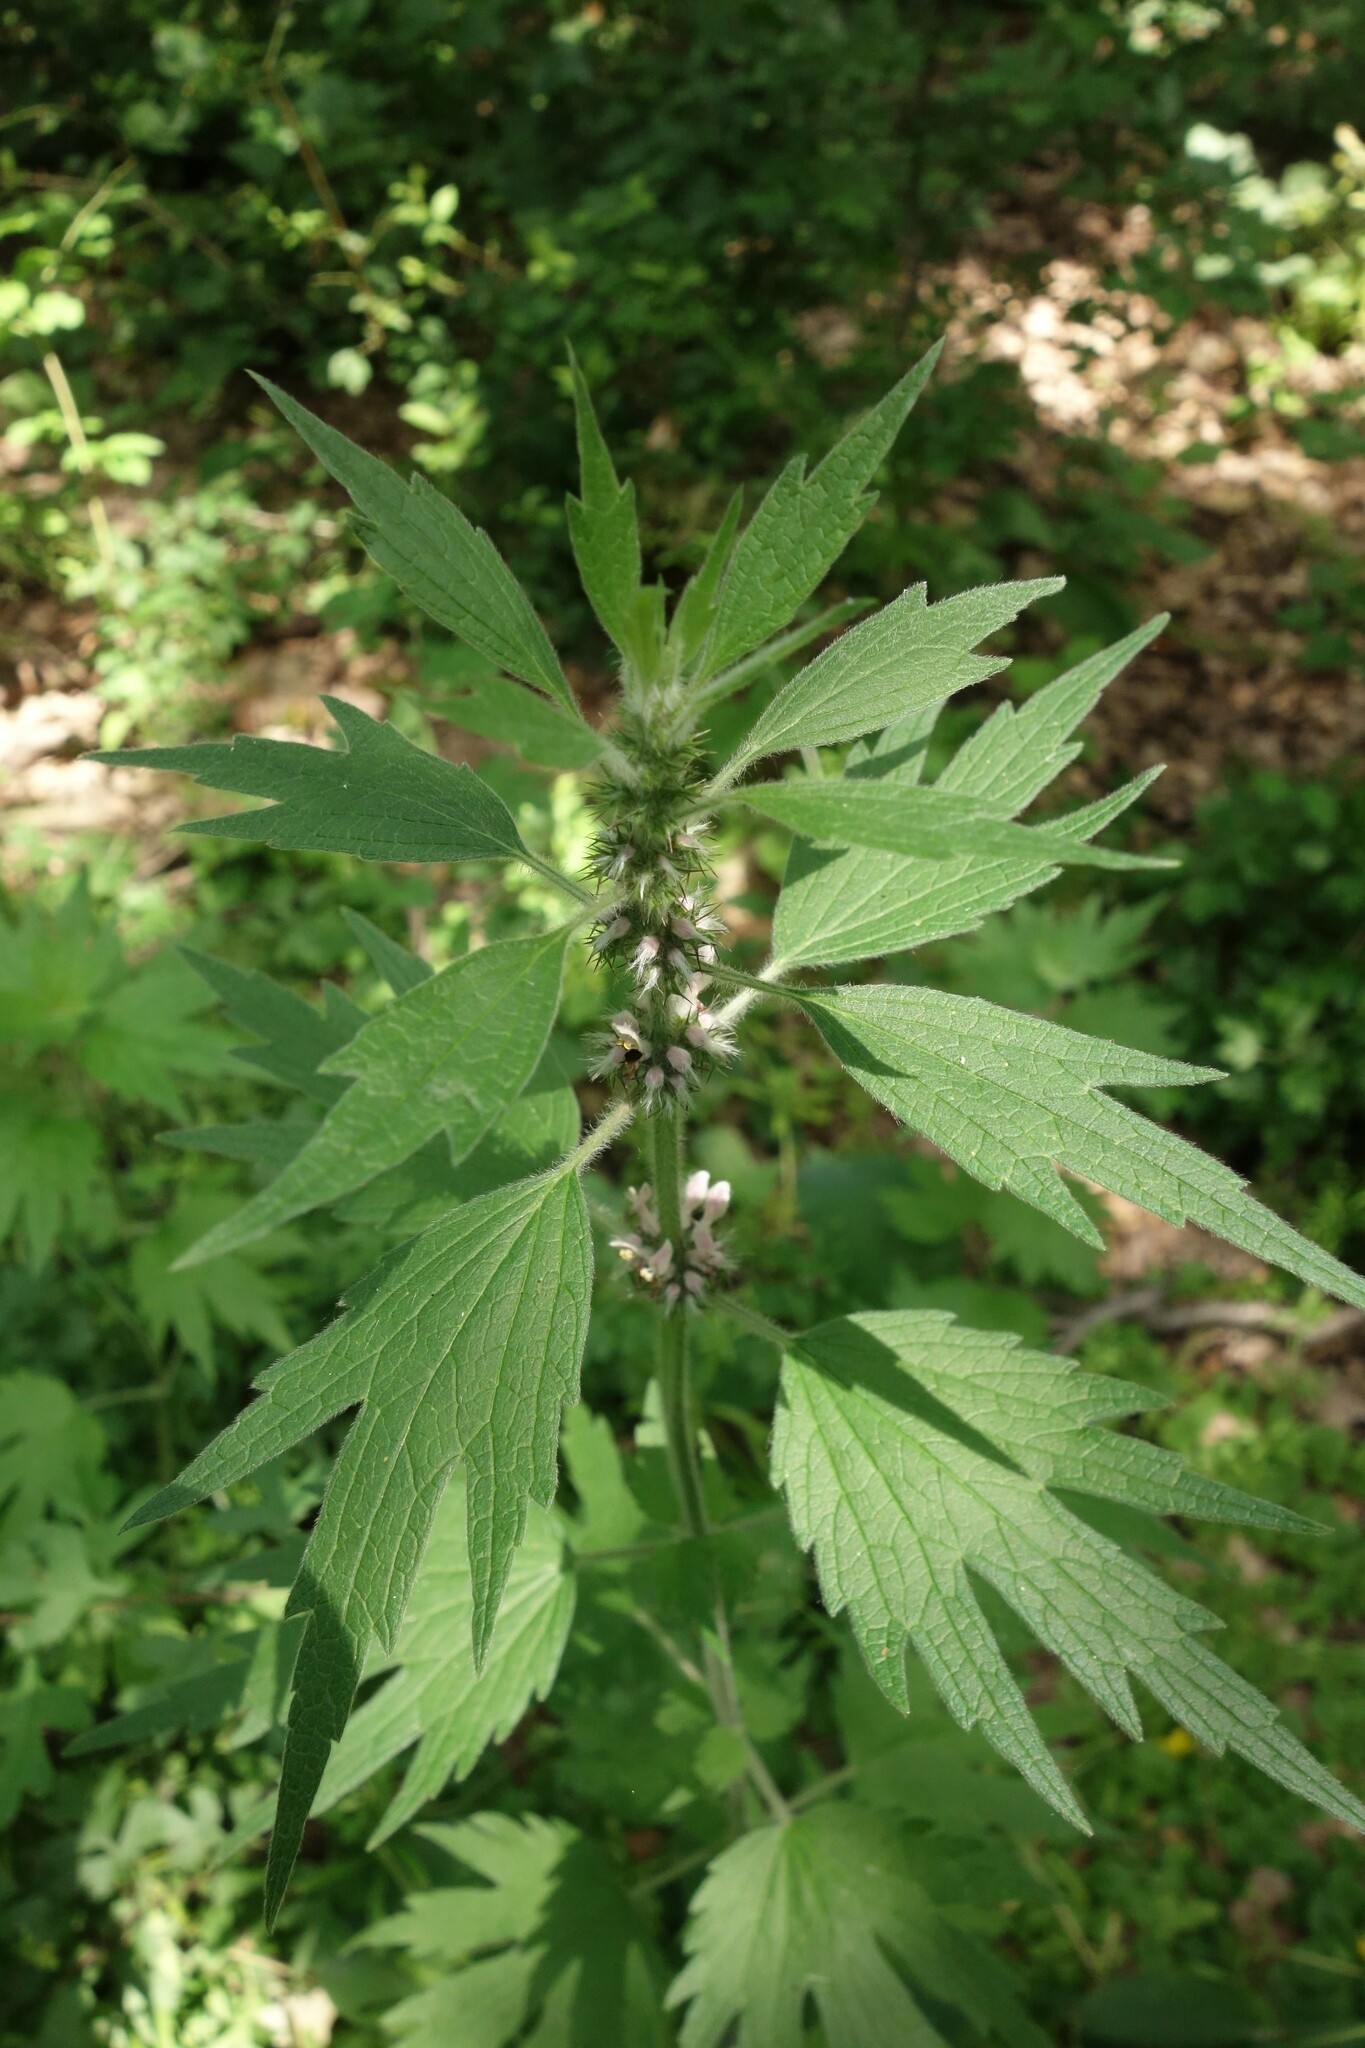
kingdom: Plantae
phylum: Tracheophyta
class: Magnoliopsida
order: Lamiales
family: Lamiaceae
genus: Leonurus
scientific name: Leonurus quinquelobatus
